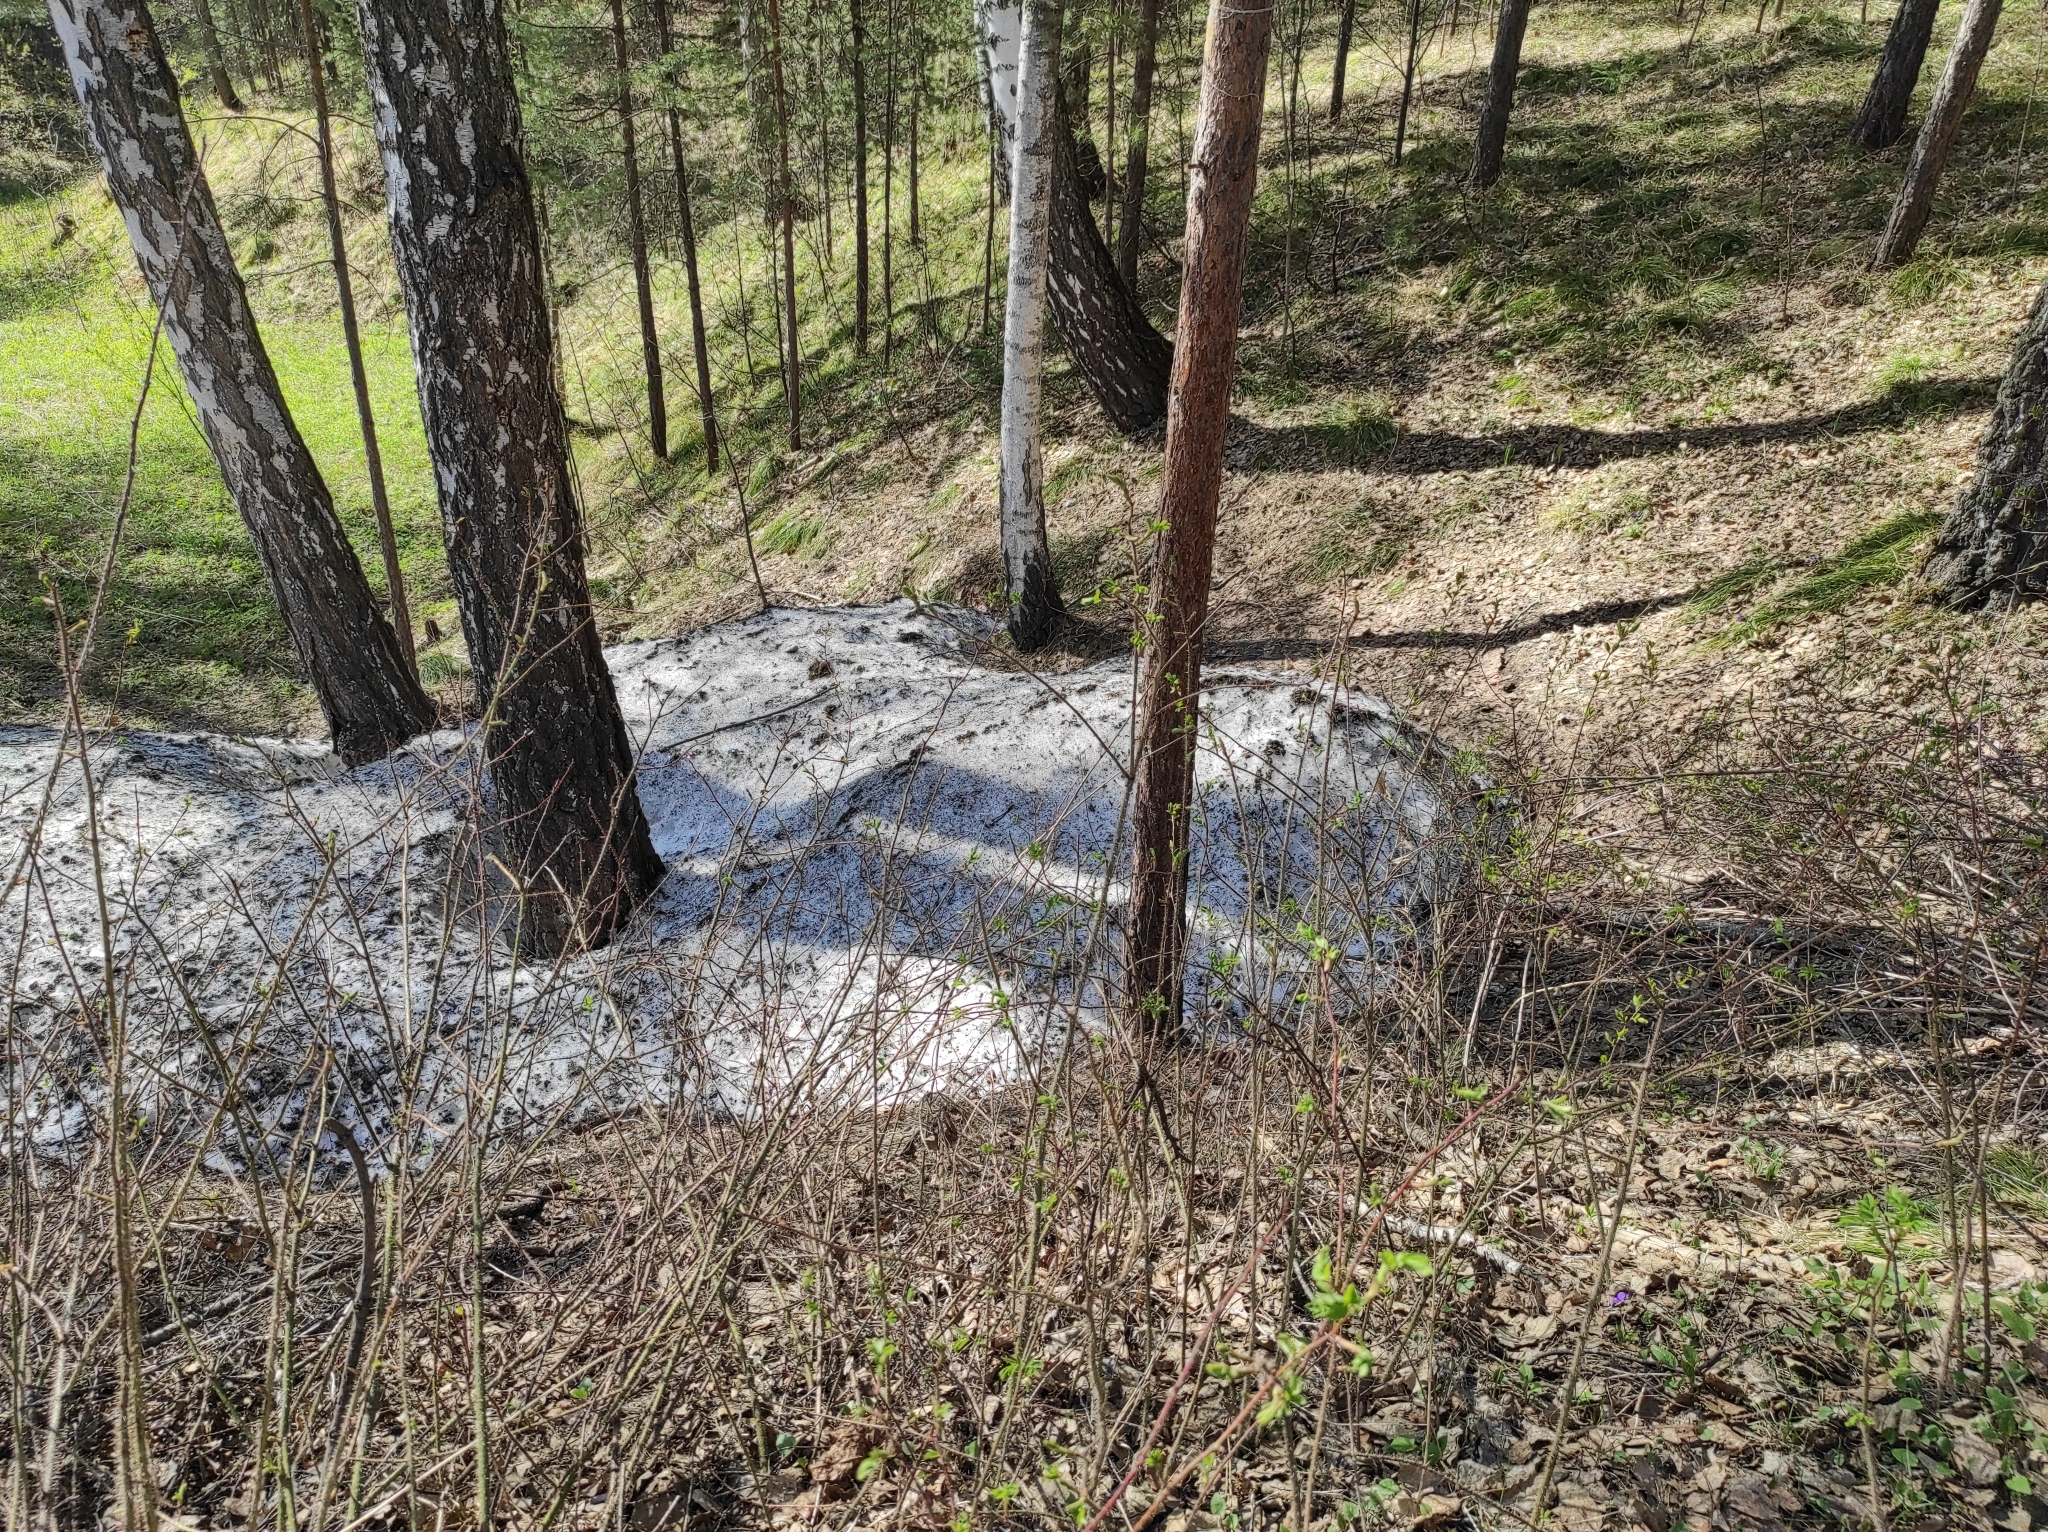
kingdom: Plantae
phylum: Tracheophyta
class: Pinopsida
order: Pinales
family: Pinaceae
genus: Pinus
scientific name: Pinus sylvestris
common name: Scots pine
